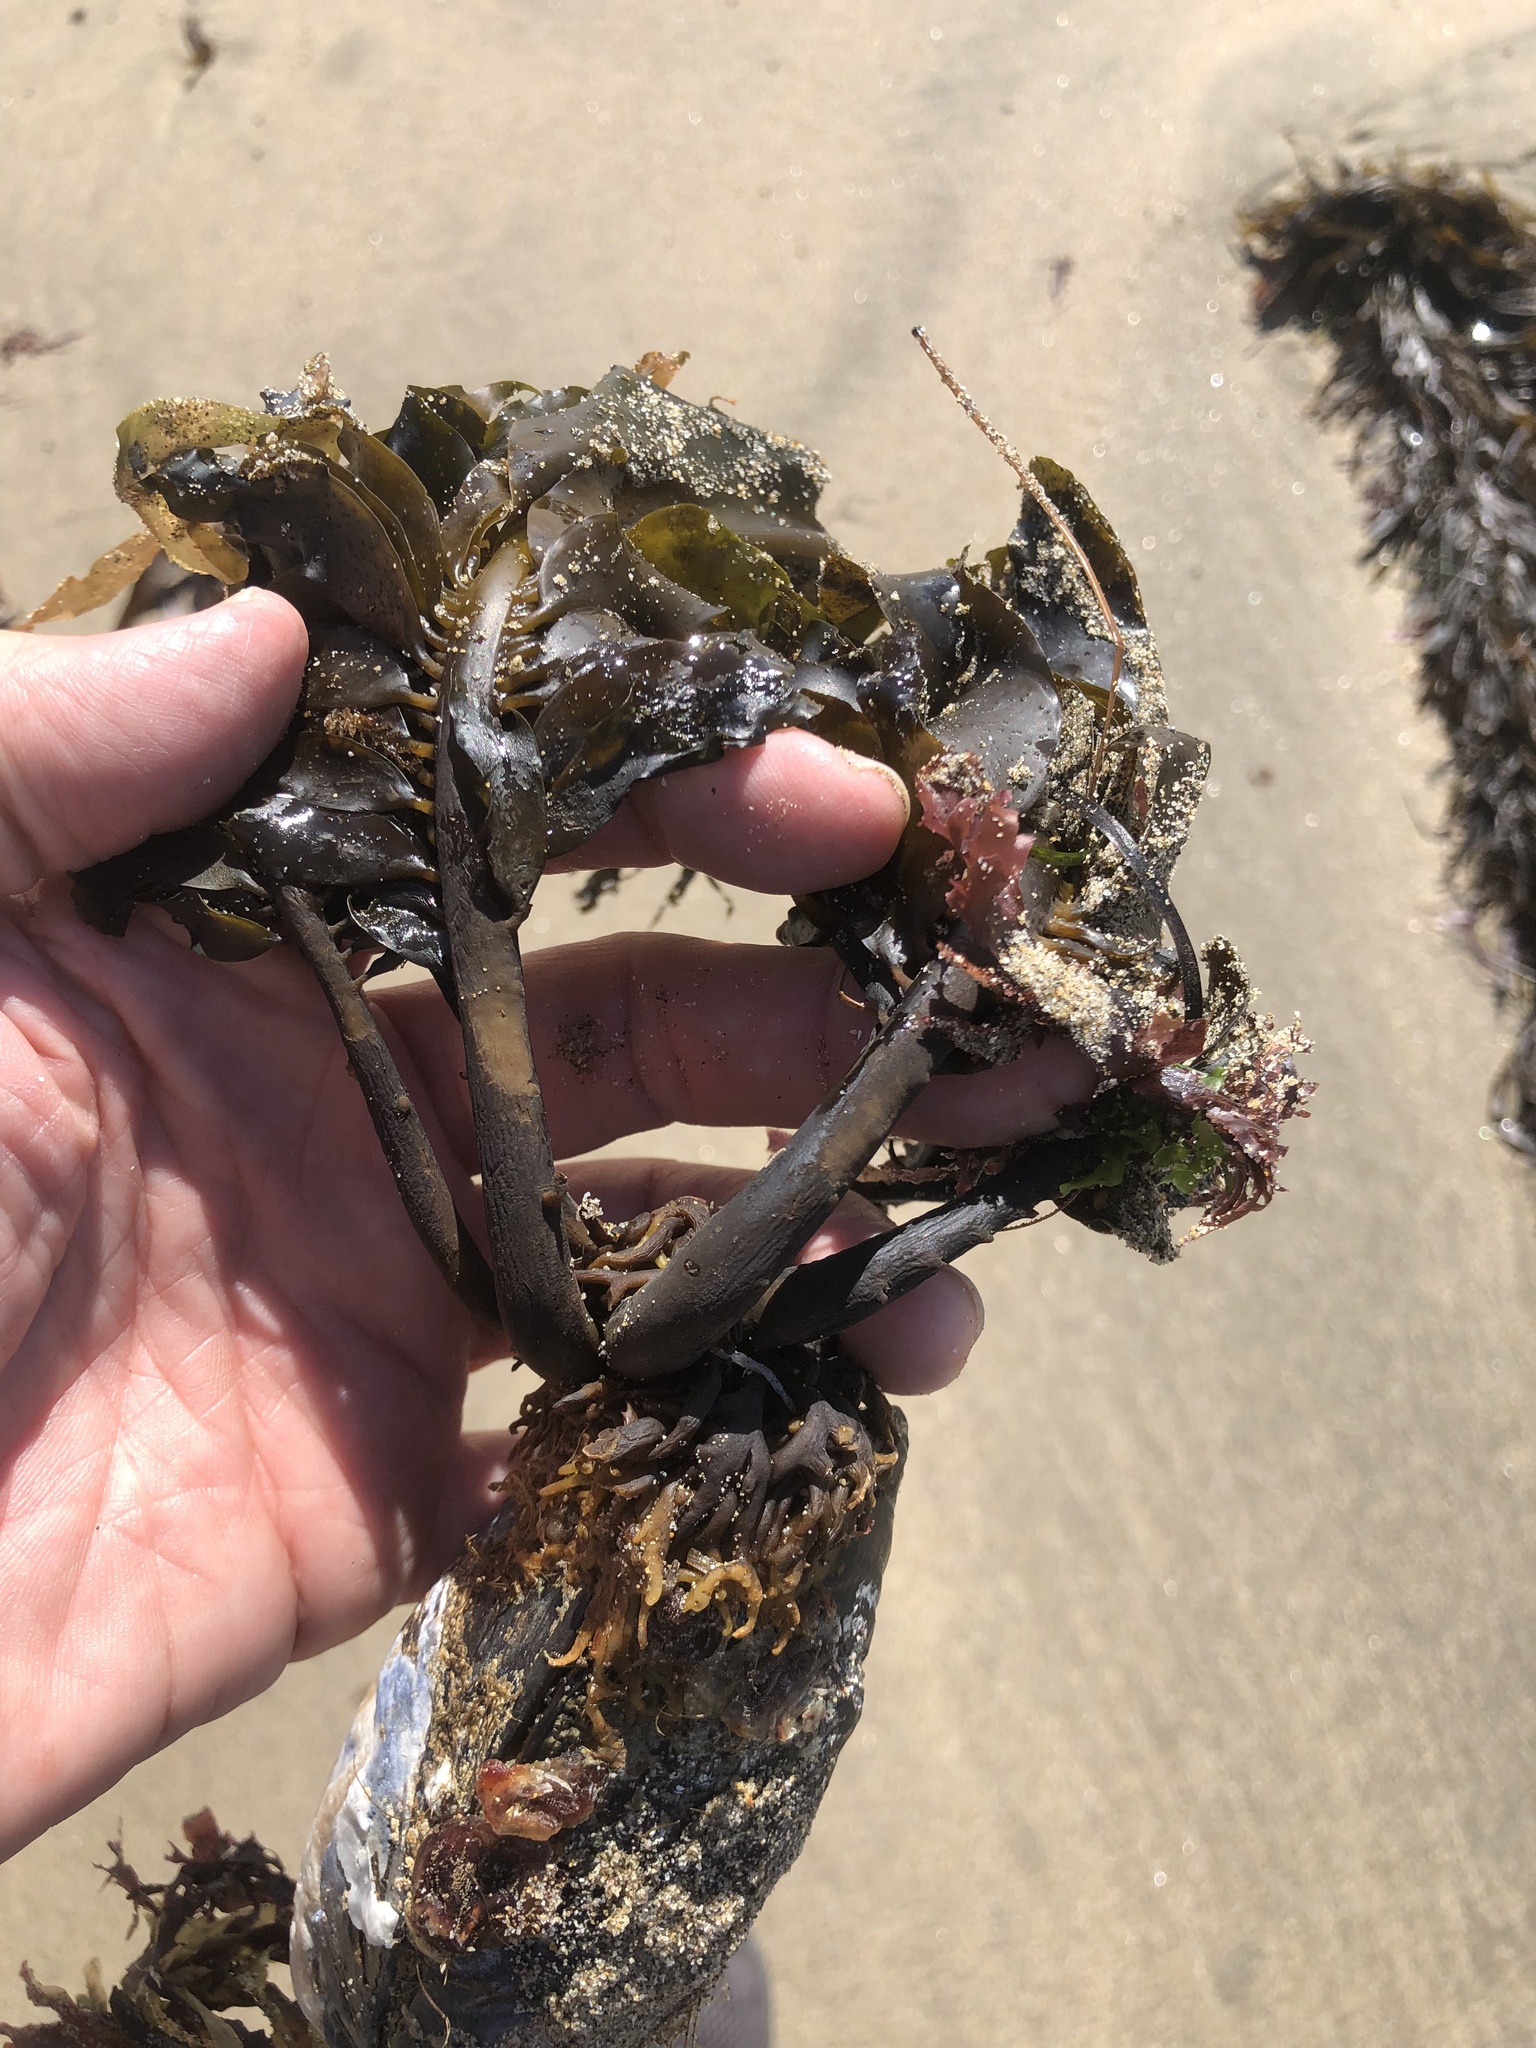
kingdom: Chromista
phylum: Ochrophyta
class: Phaeophyceae
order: Laminariales
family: Alariaceae
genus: Alaria
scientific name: Alaria marginata
